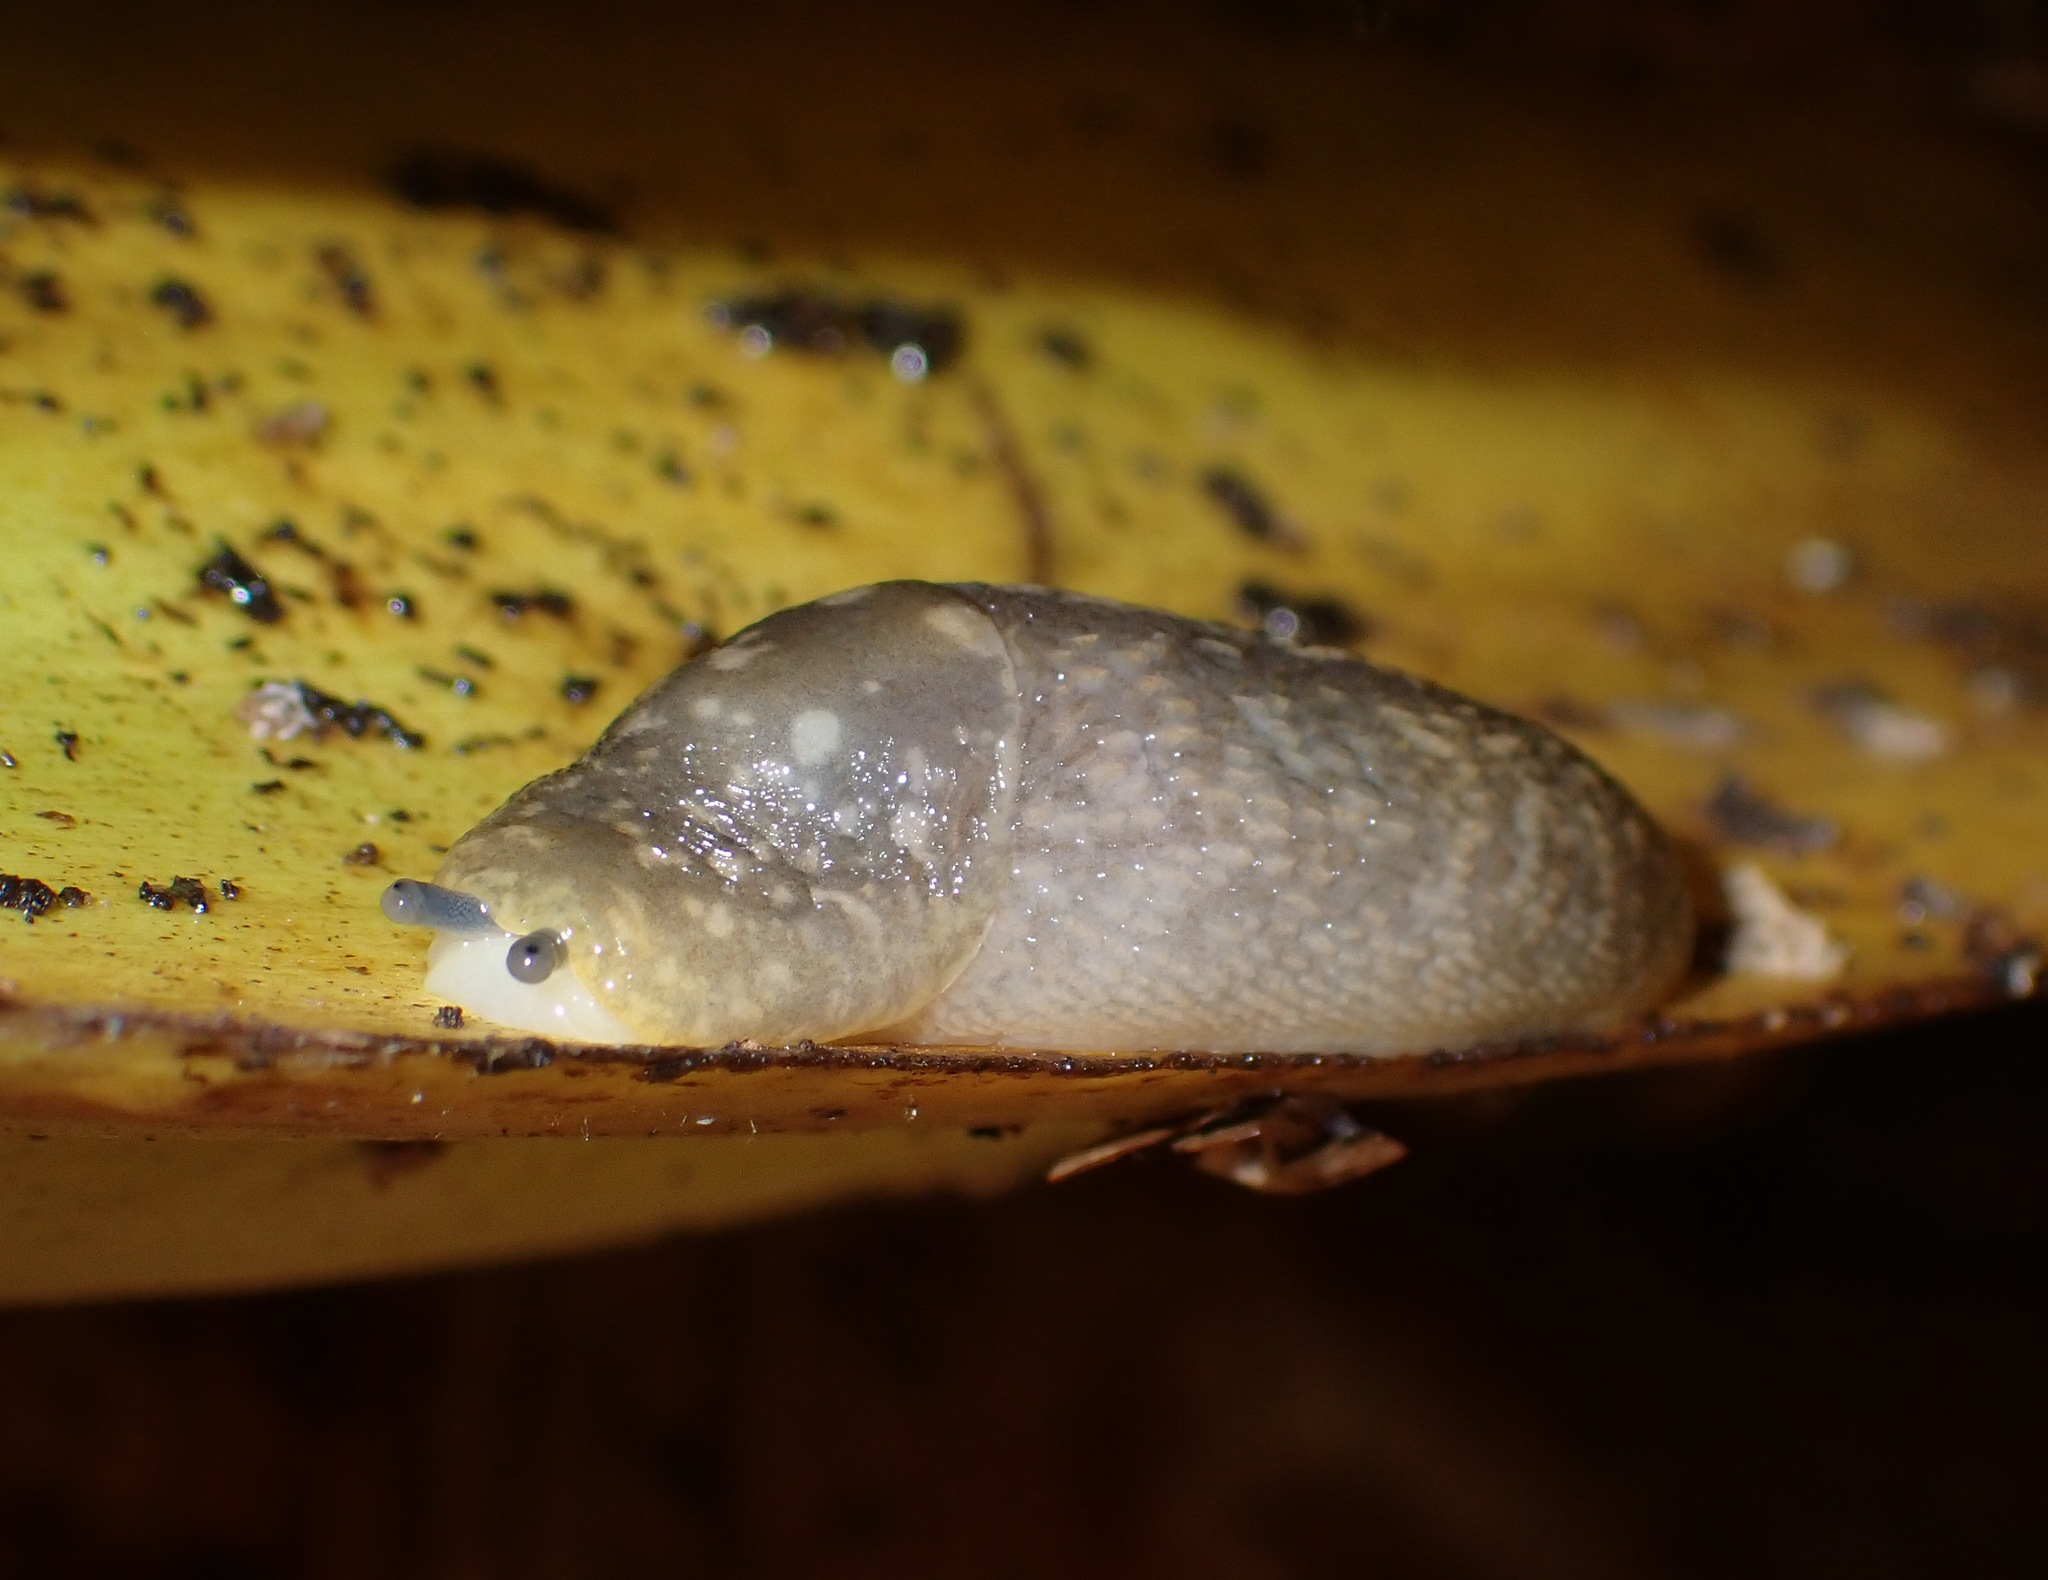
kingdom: Animalia
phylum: Mollusca
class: Gastropoda
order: Stylommatophora
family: Limacidae
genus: Limacus
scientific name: Limacus flavus
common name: Yellow gardenslug
